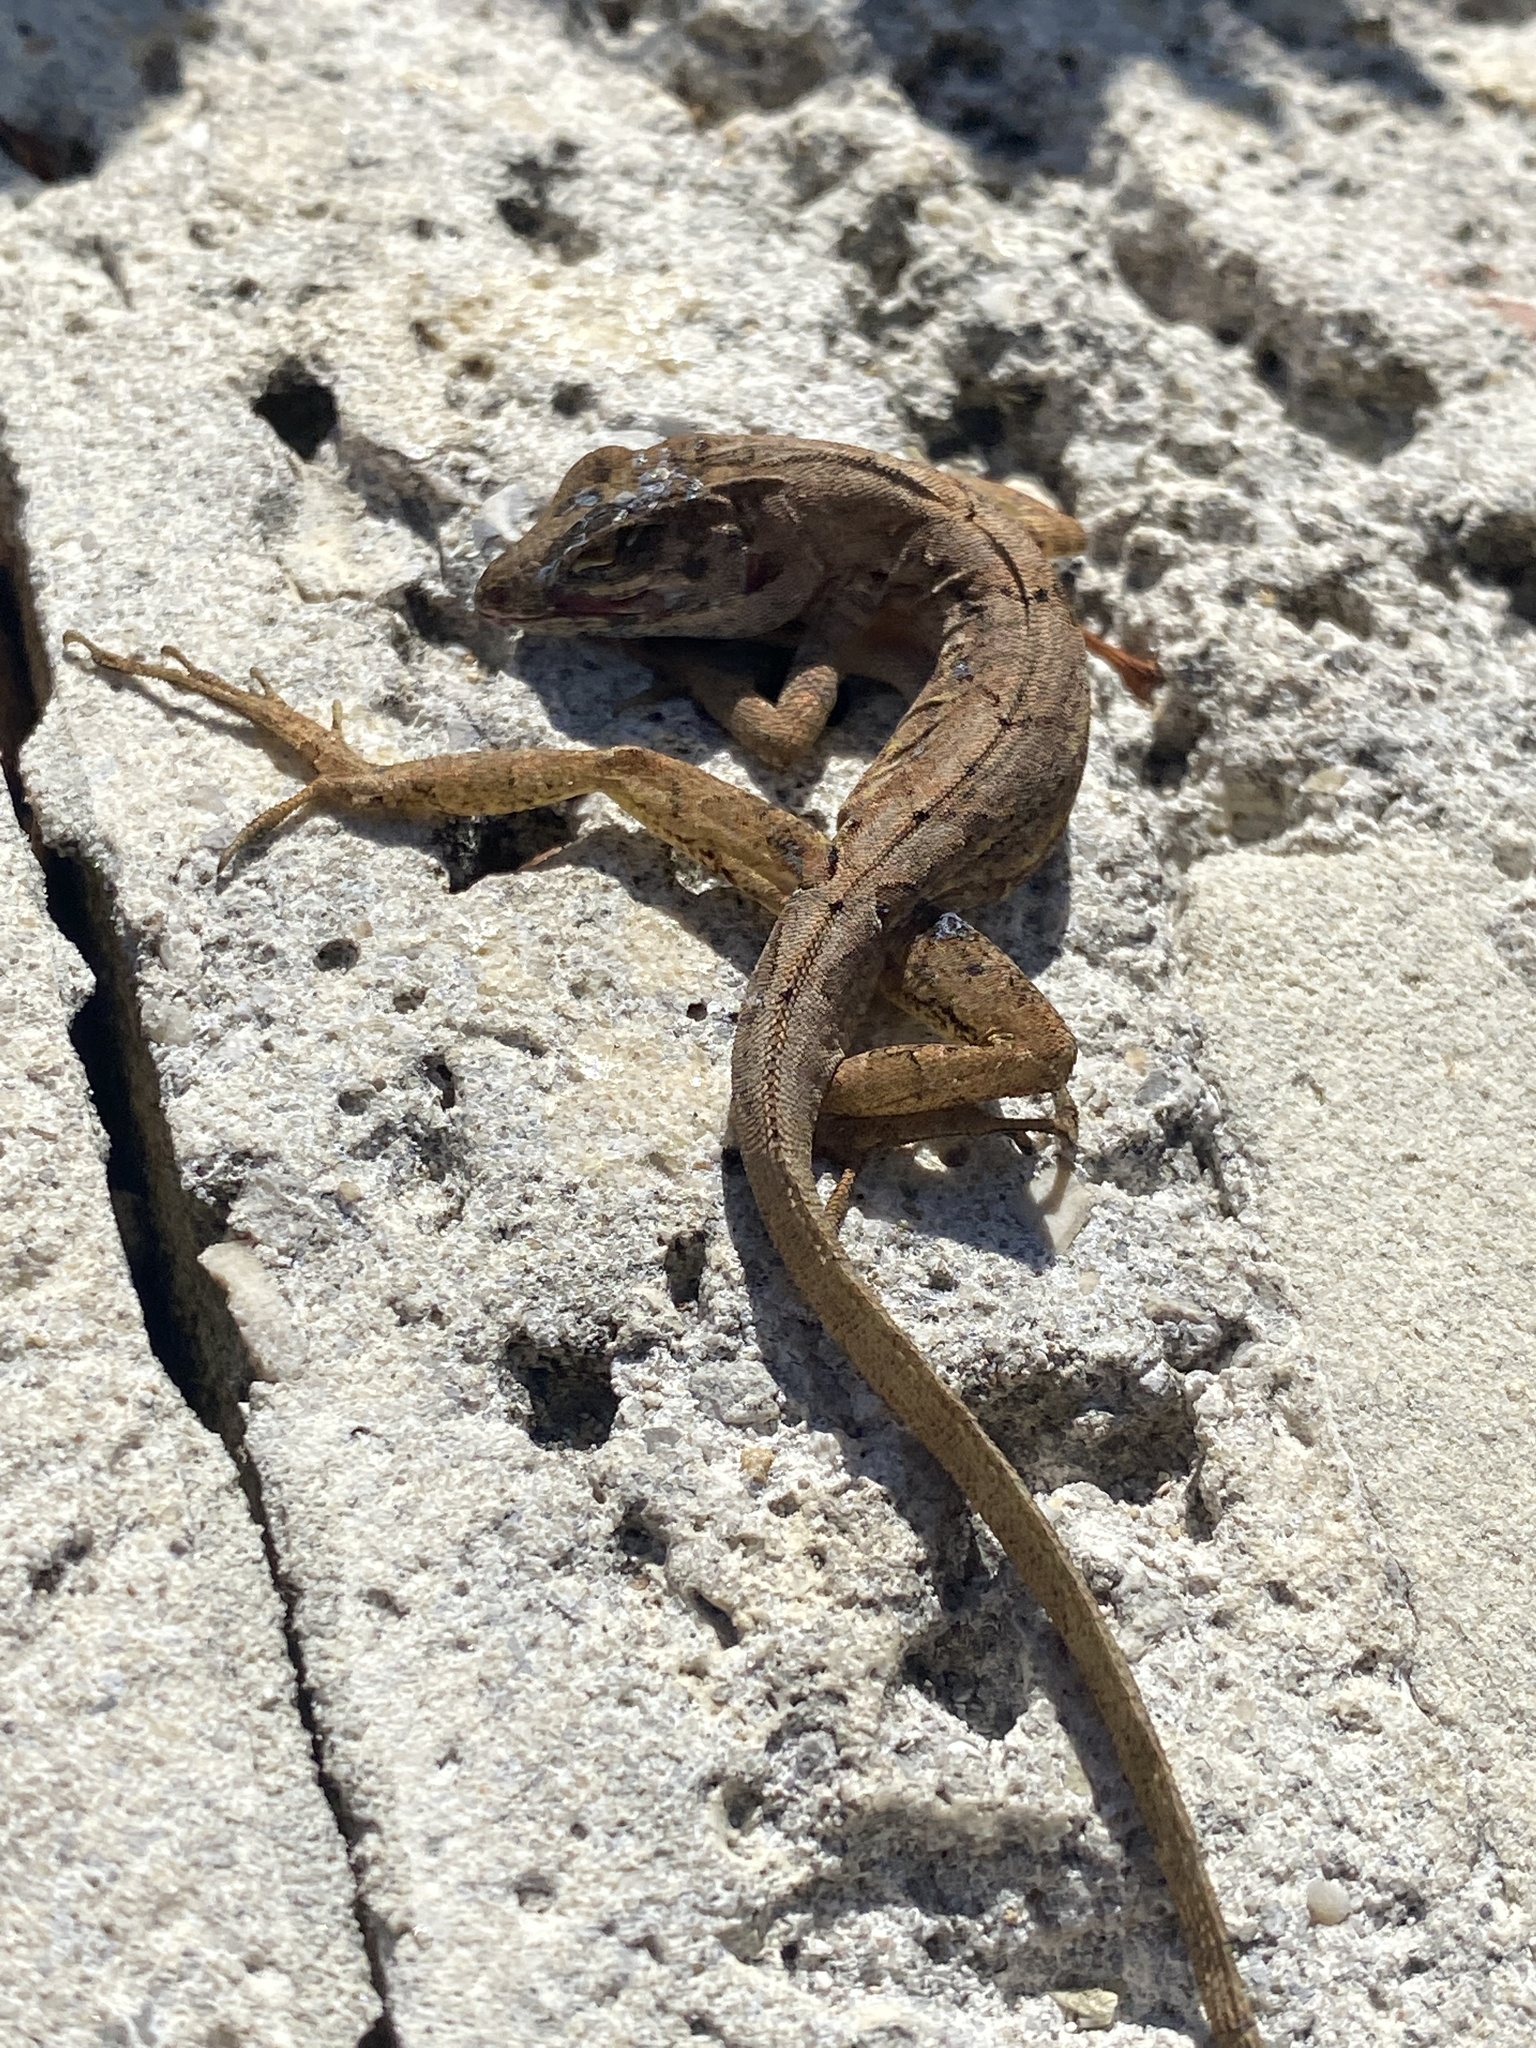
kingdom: Animalia
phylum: Chordata
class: Squamata
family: Dactyloidae
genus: Anolis
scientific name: Anolis sagrei
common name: Brown anole
